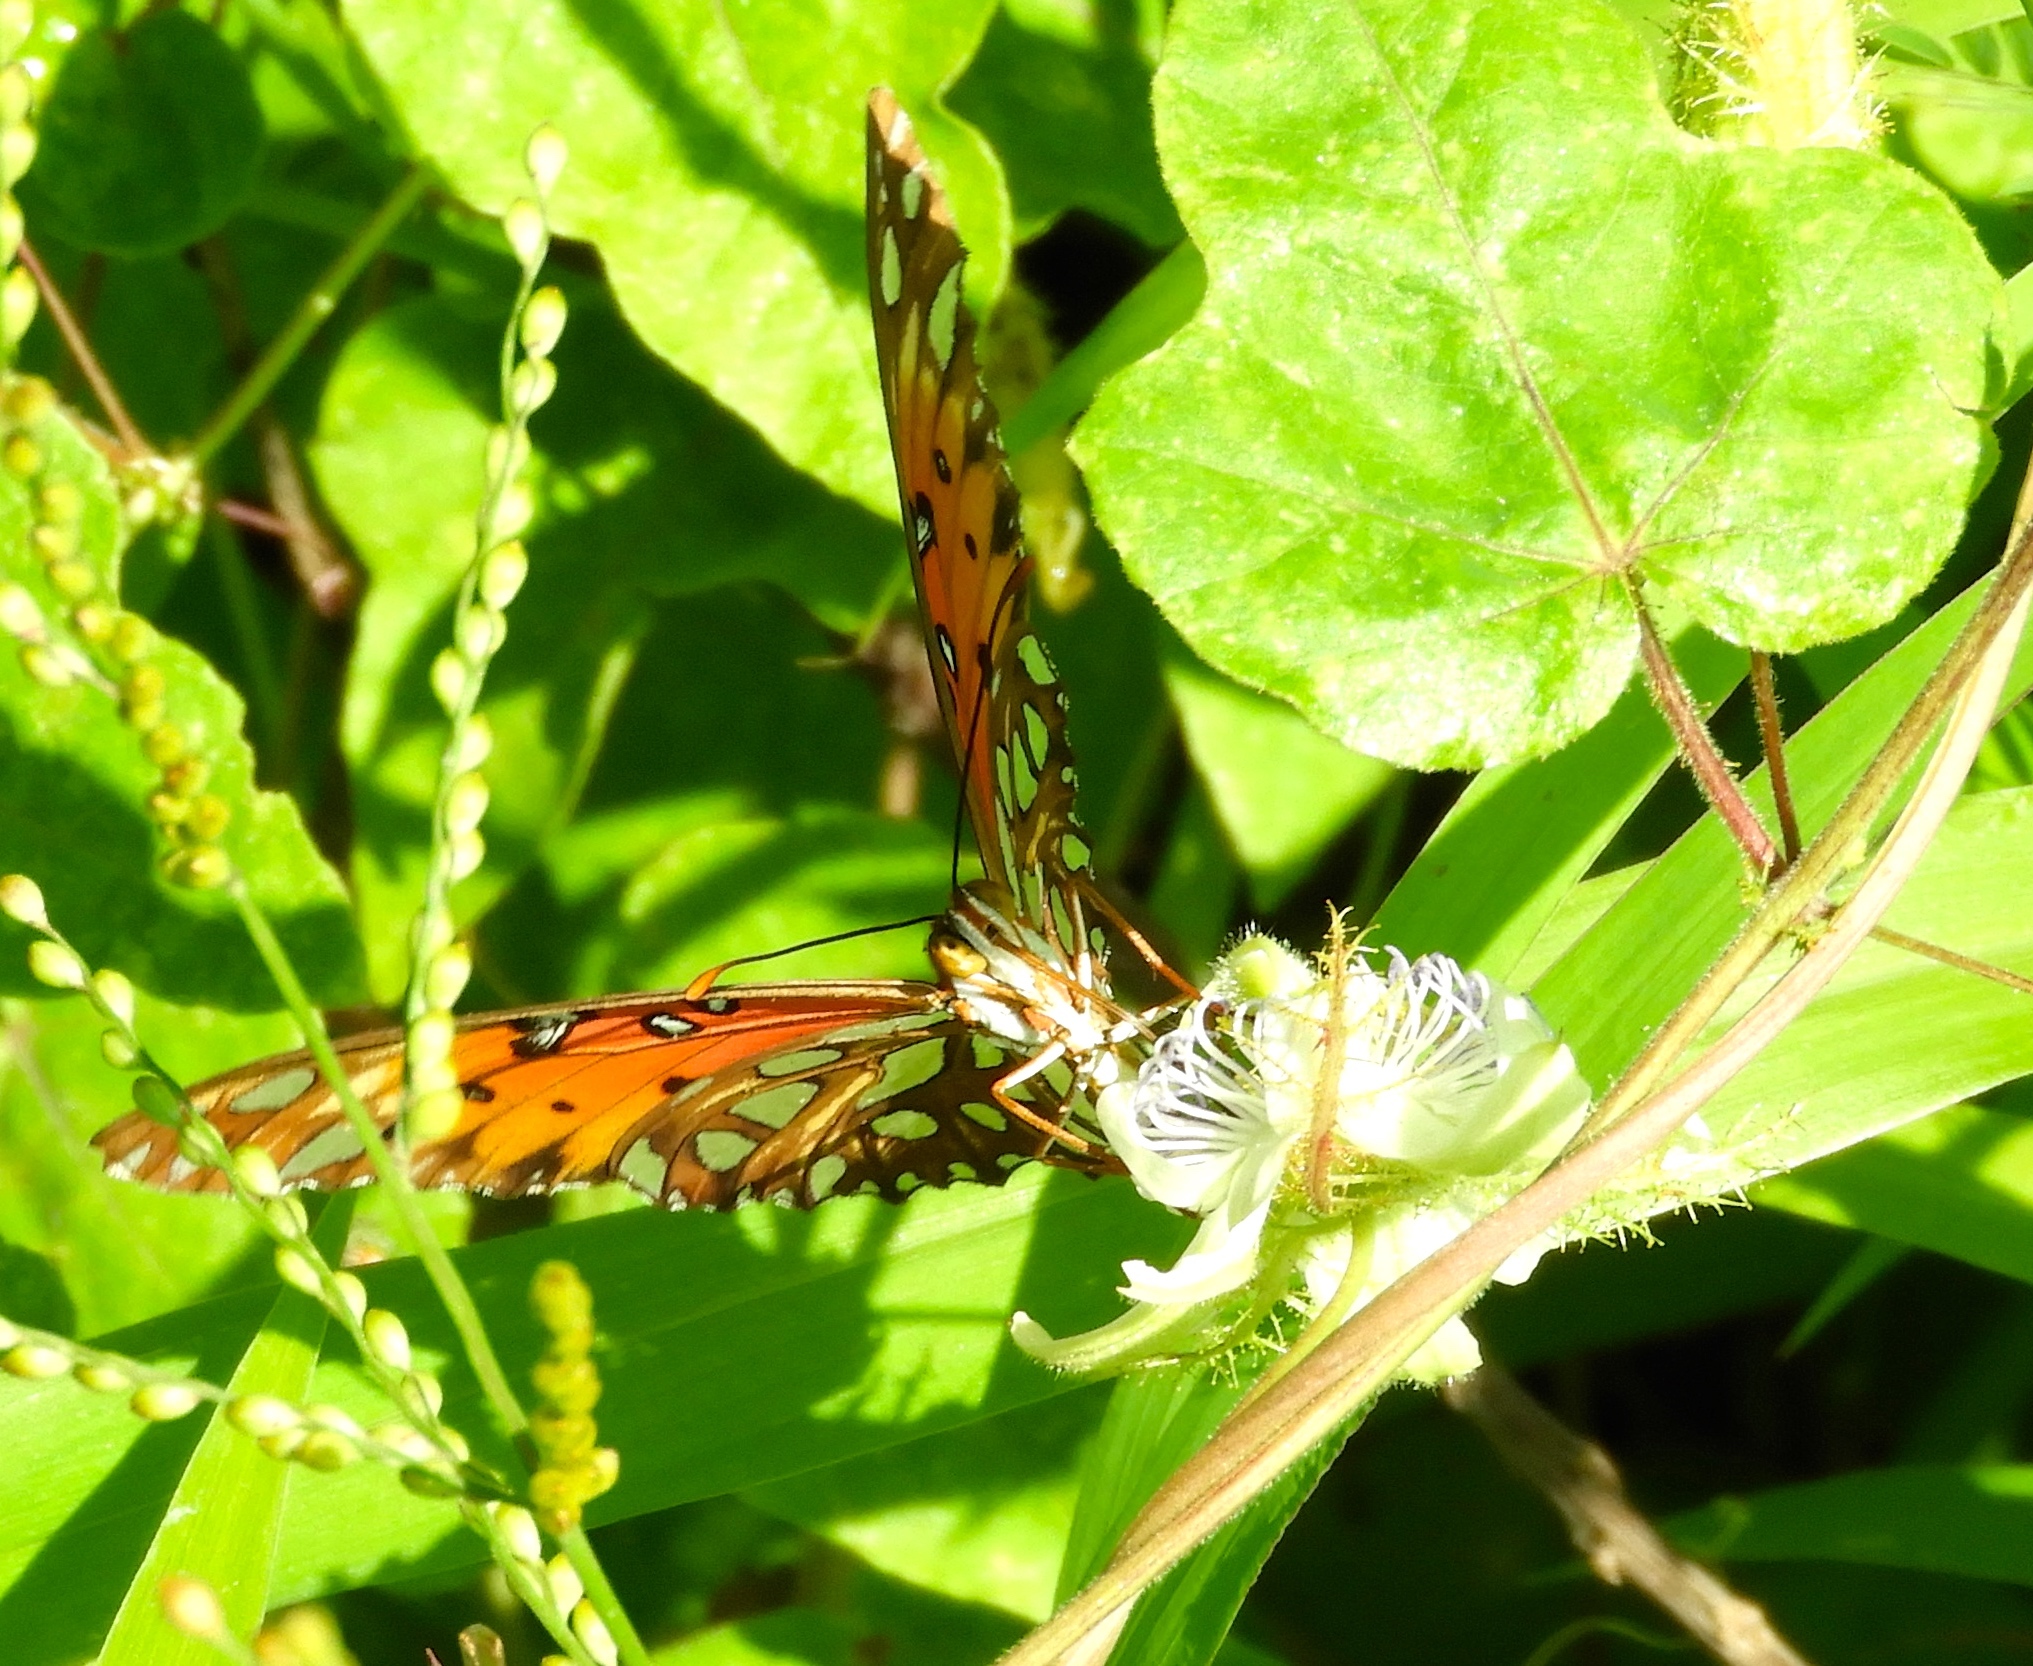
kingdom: Animalia
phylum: Arthropoda
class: Insecta
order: Lepidoptera
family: Nymphalidae
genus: Dione
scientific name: Dione vanillae
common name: Gulf fritillary
